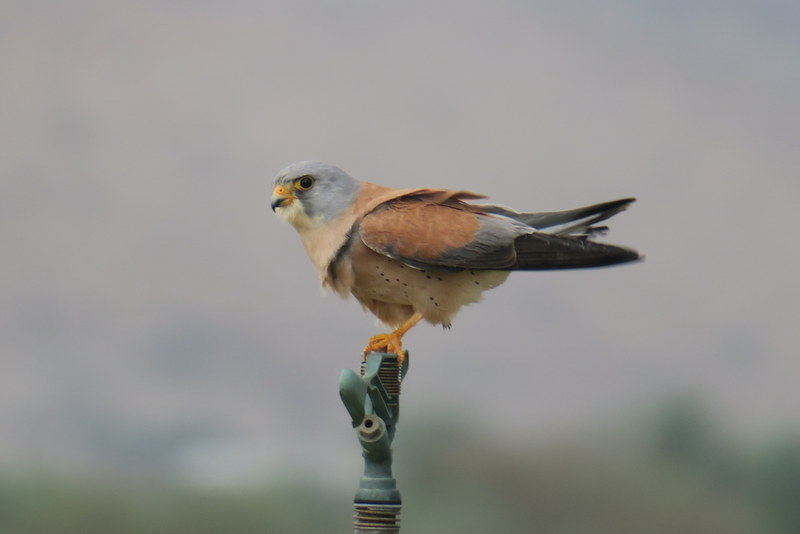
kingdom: Animalia
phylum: Chordata
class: Aves
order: Falconiformes
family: Falconidae
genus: Falco
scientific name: Falco naumanni
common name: Lesser kestrel
